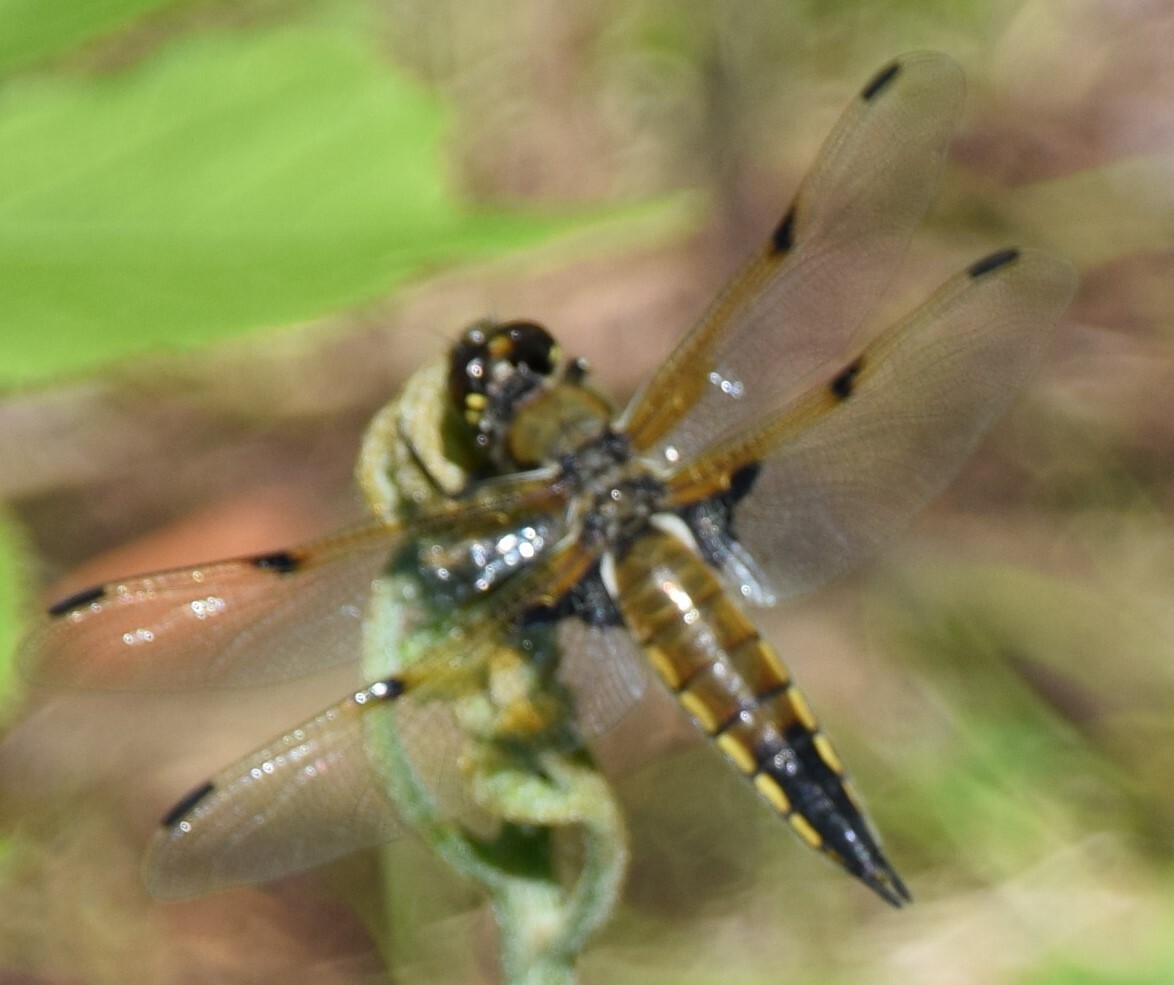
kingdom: Animalia
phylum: Arthropoda
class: Insecta
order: Odonata
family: Libellulidae
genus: Libellula
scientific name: Libellula quadrimaculata
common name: Four-spotted chaser
